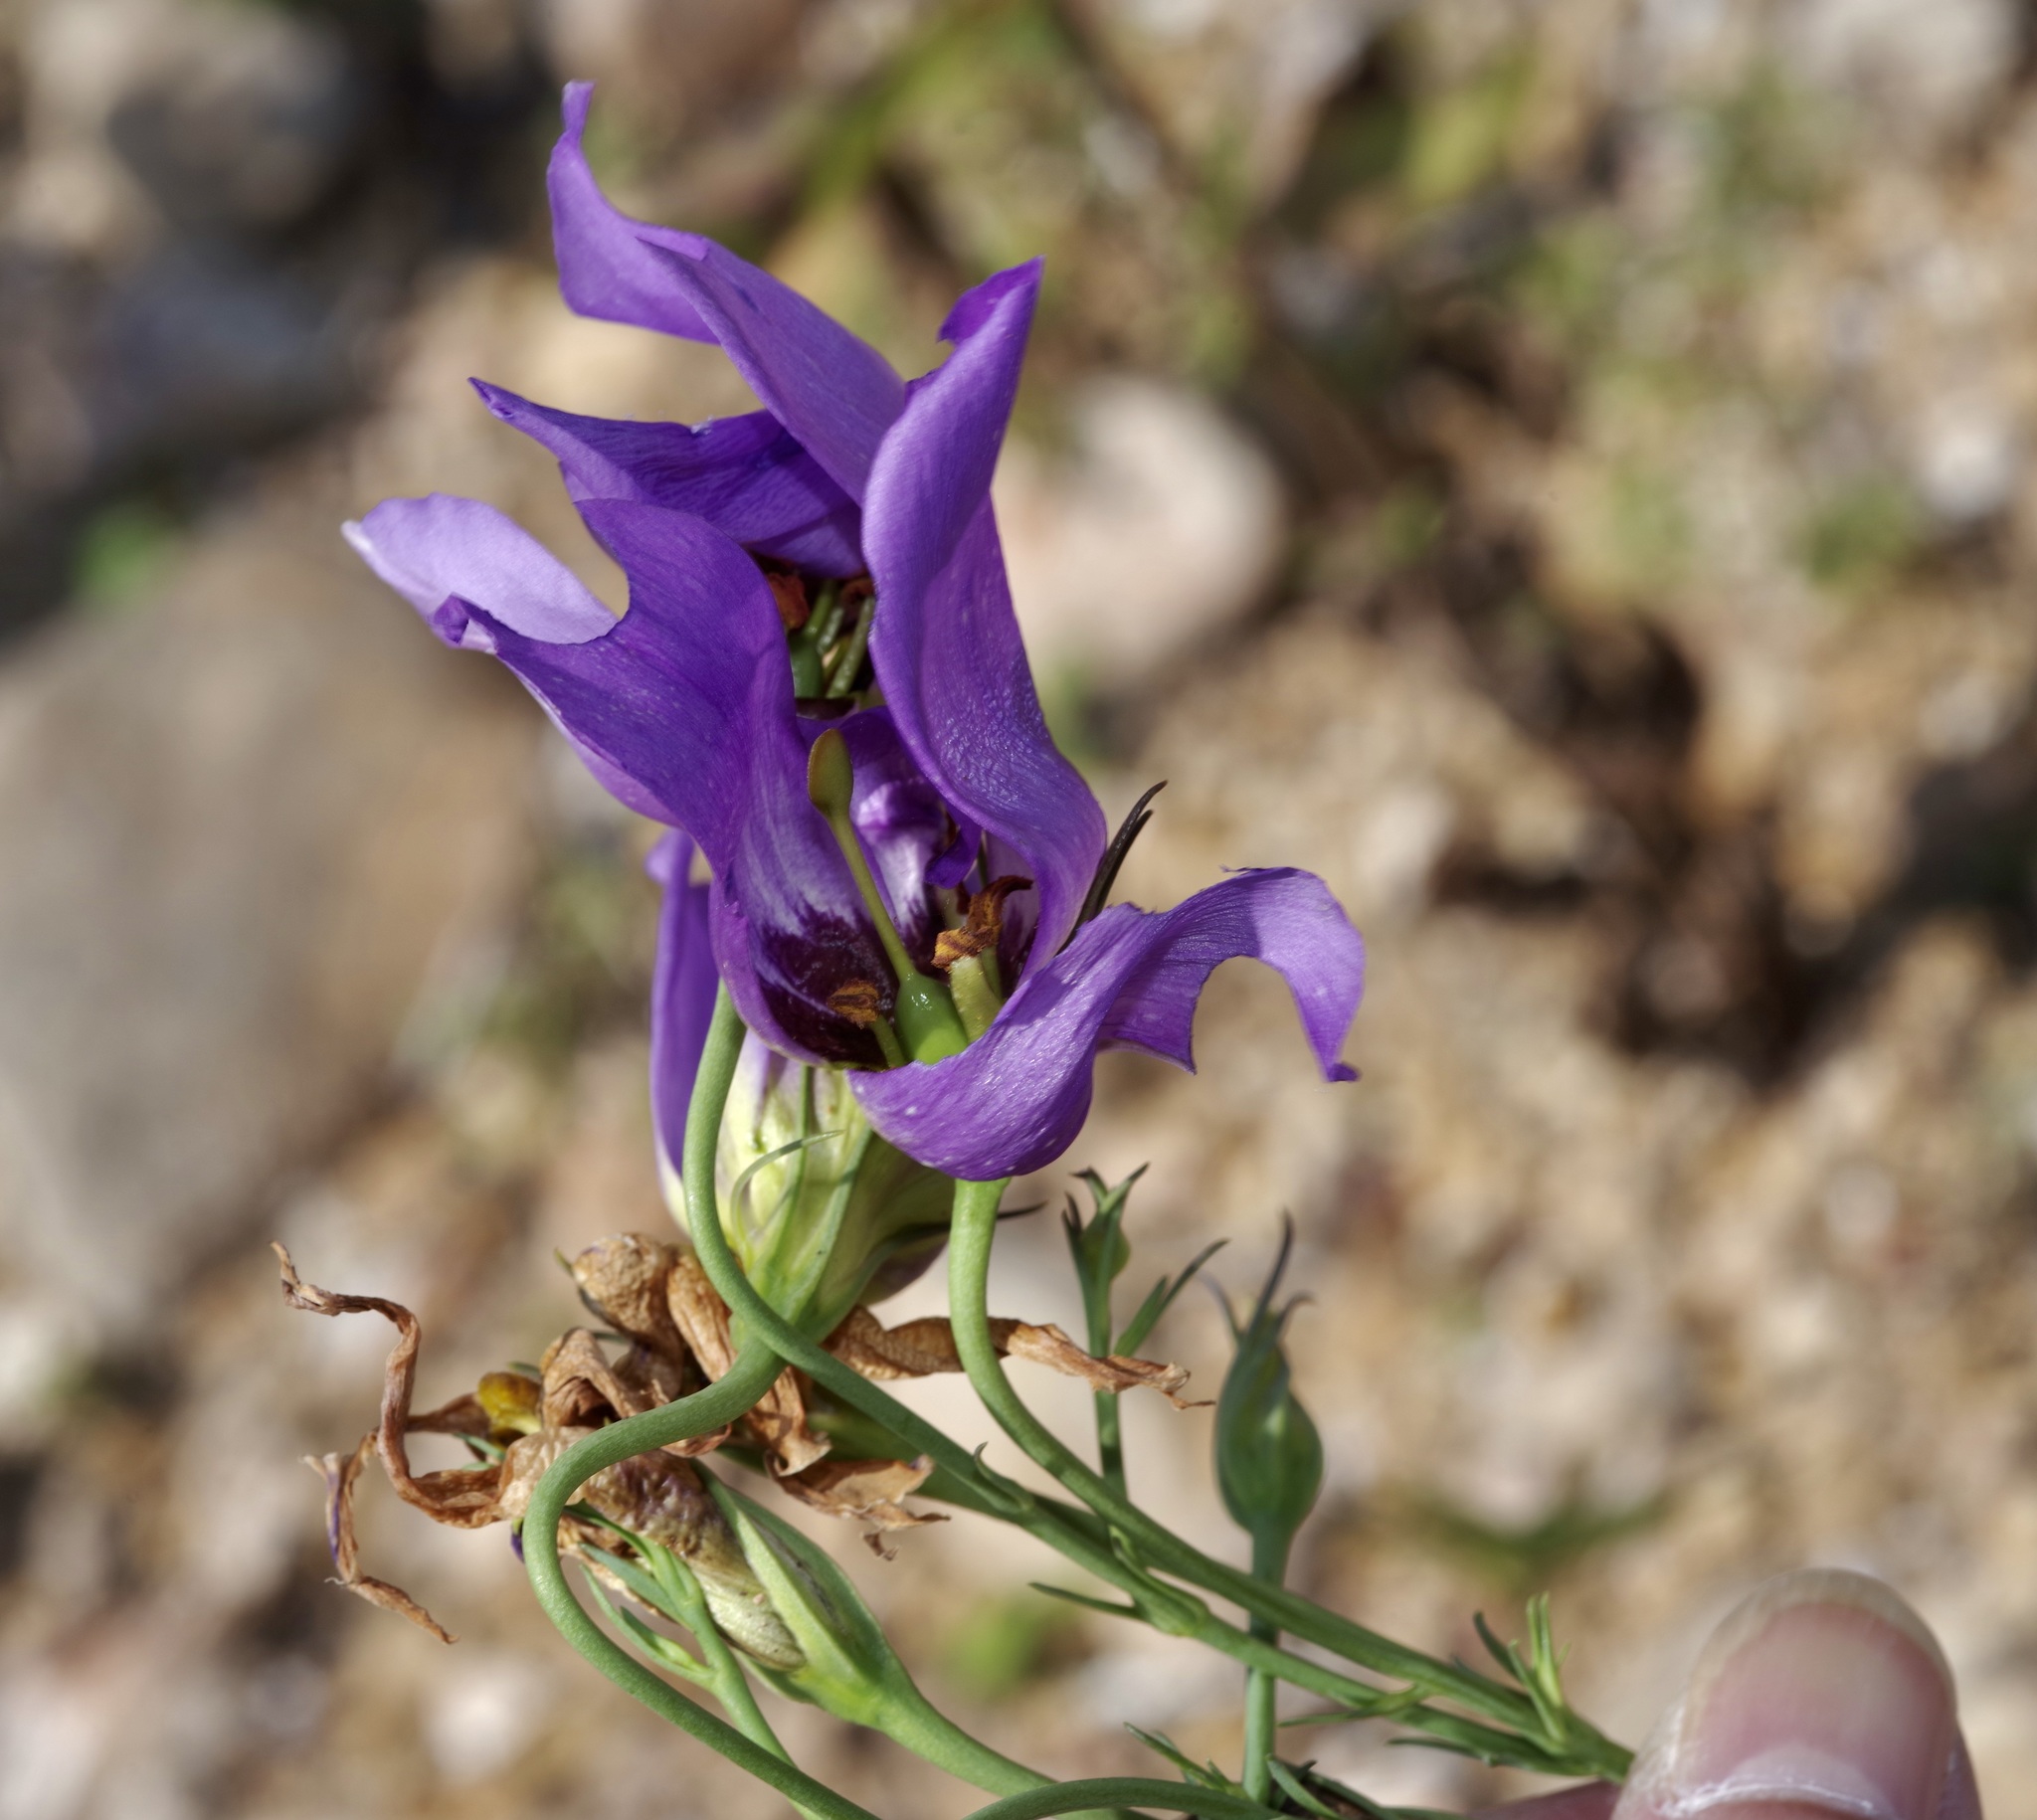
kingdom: Plantae
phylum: Tracheophyta
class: Magnoliopsida
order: Gentianales
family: Gentianaceae
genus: Eustoma
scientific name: Eustoma russellianum
